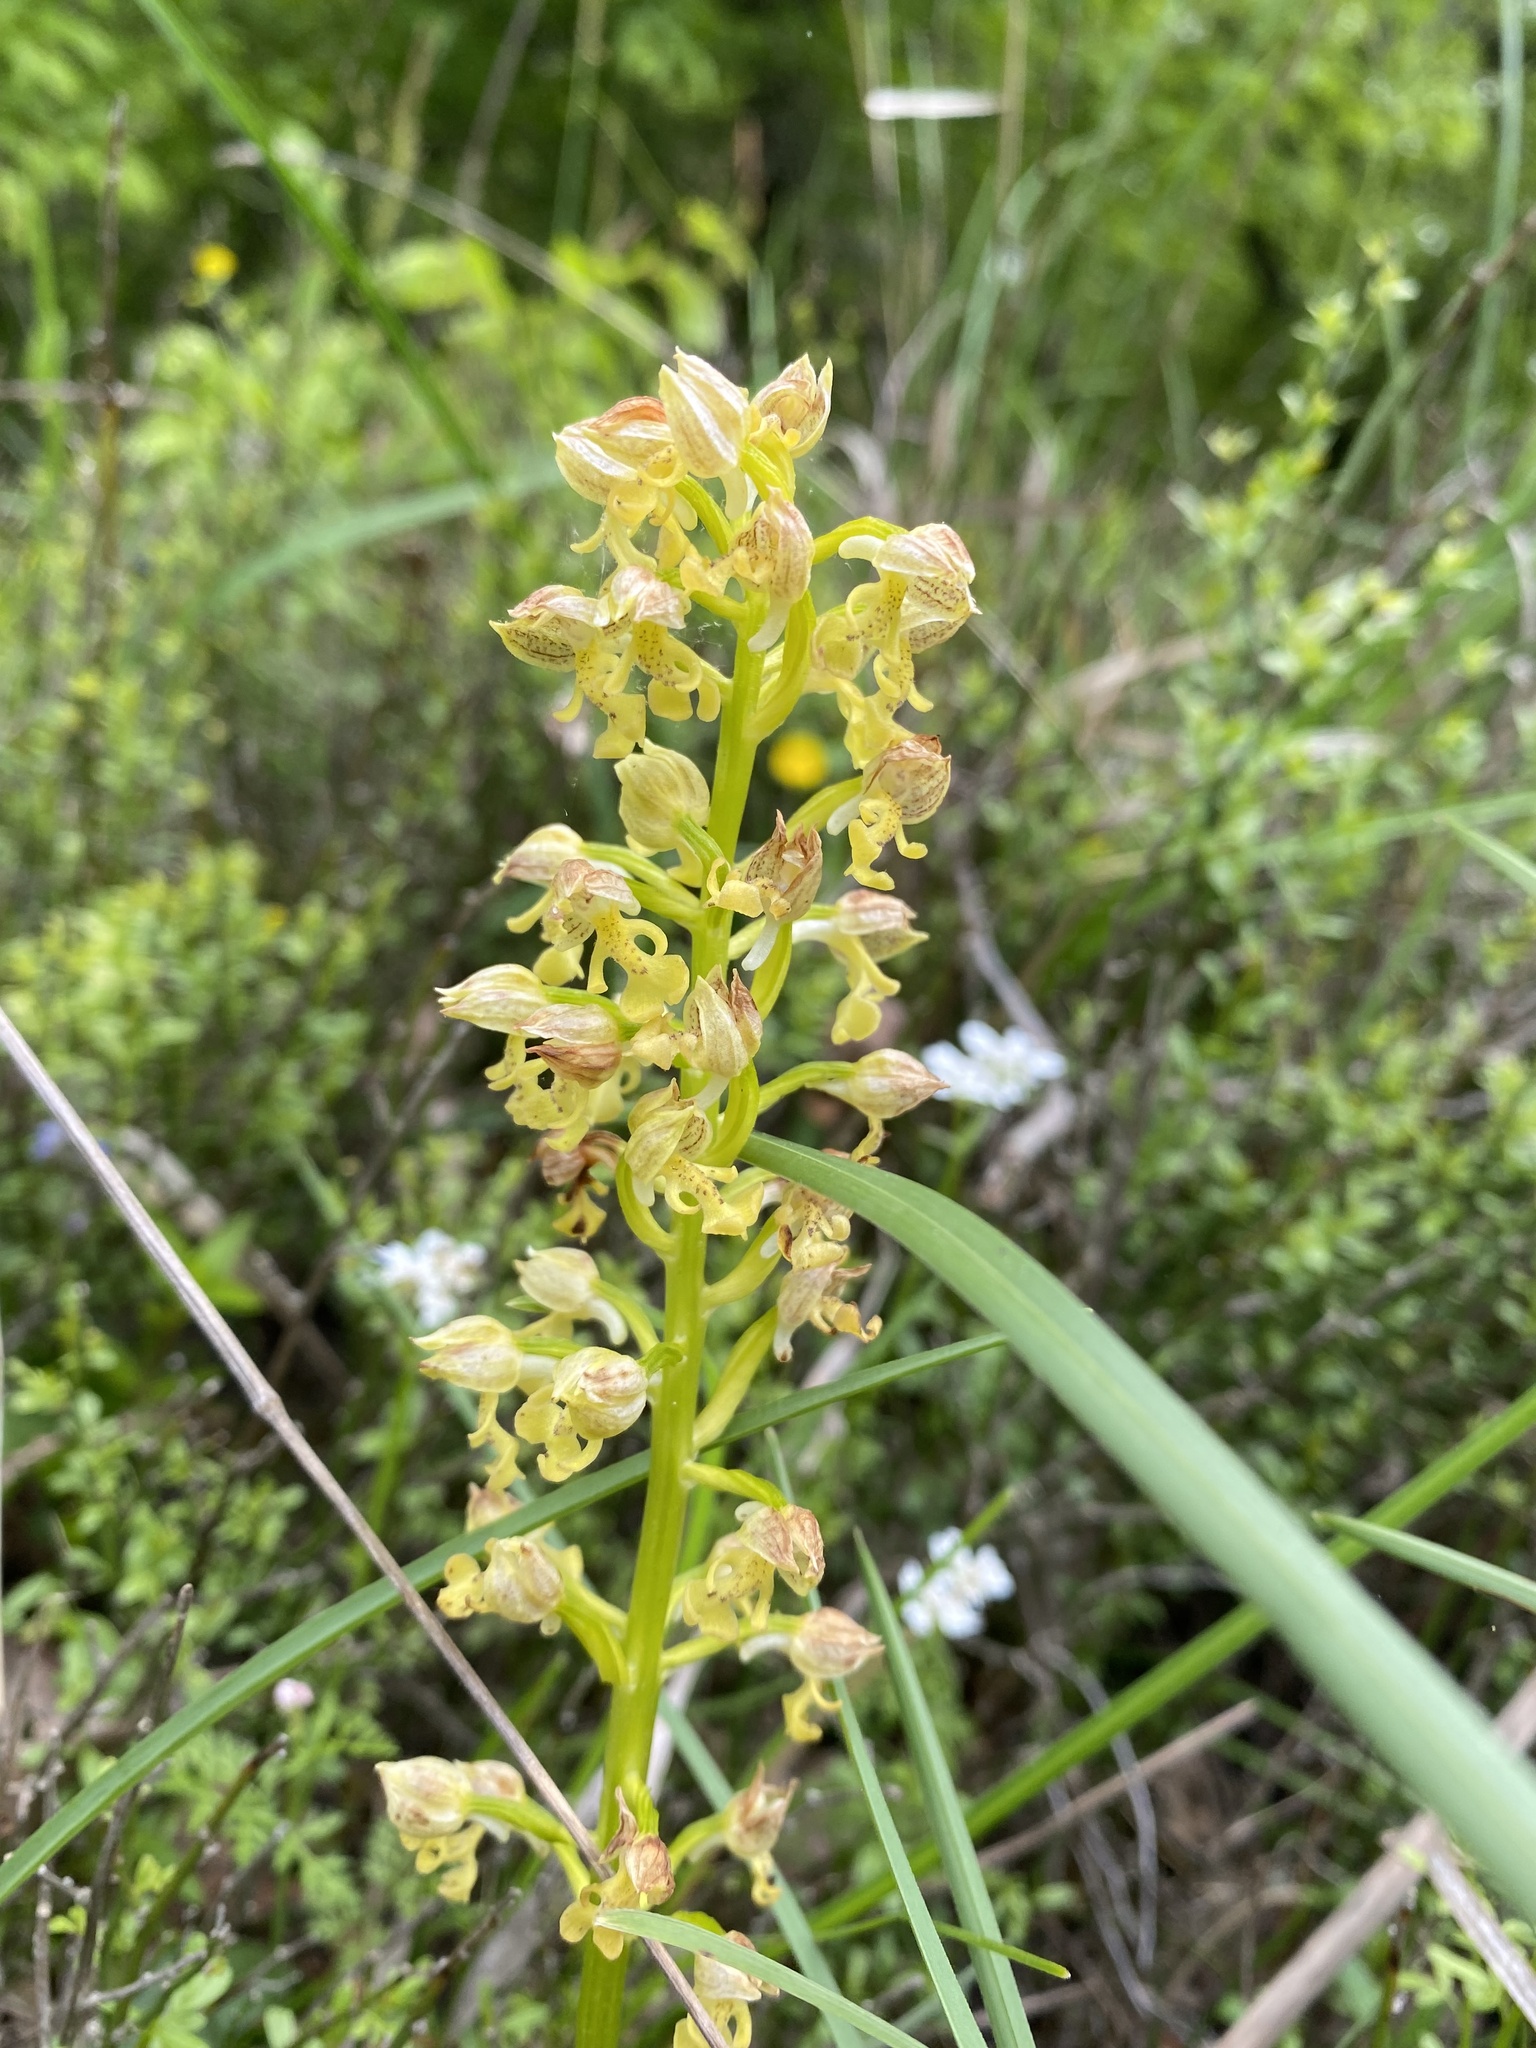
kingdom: Plantae
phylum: Tracheophyta
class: Liliopsida
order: Asparagales
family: Orchidaceae
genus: Orchis
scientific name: Orchis punctulata
